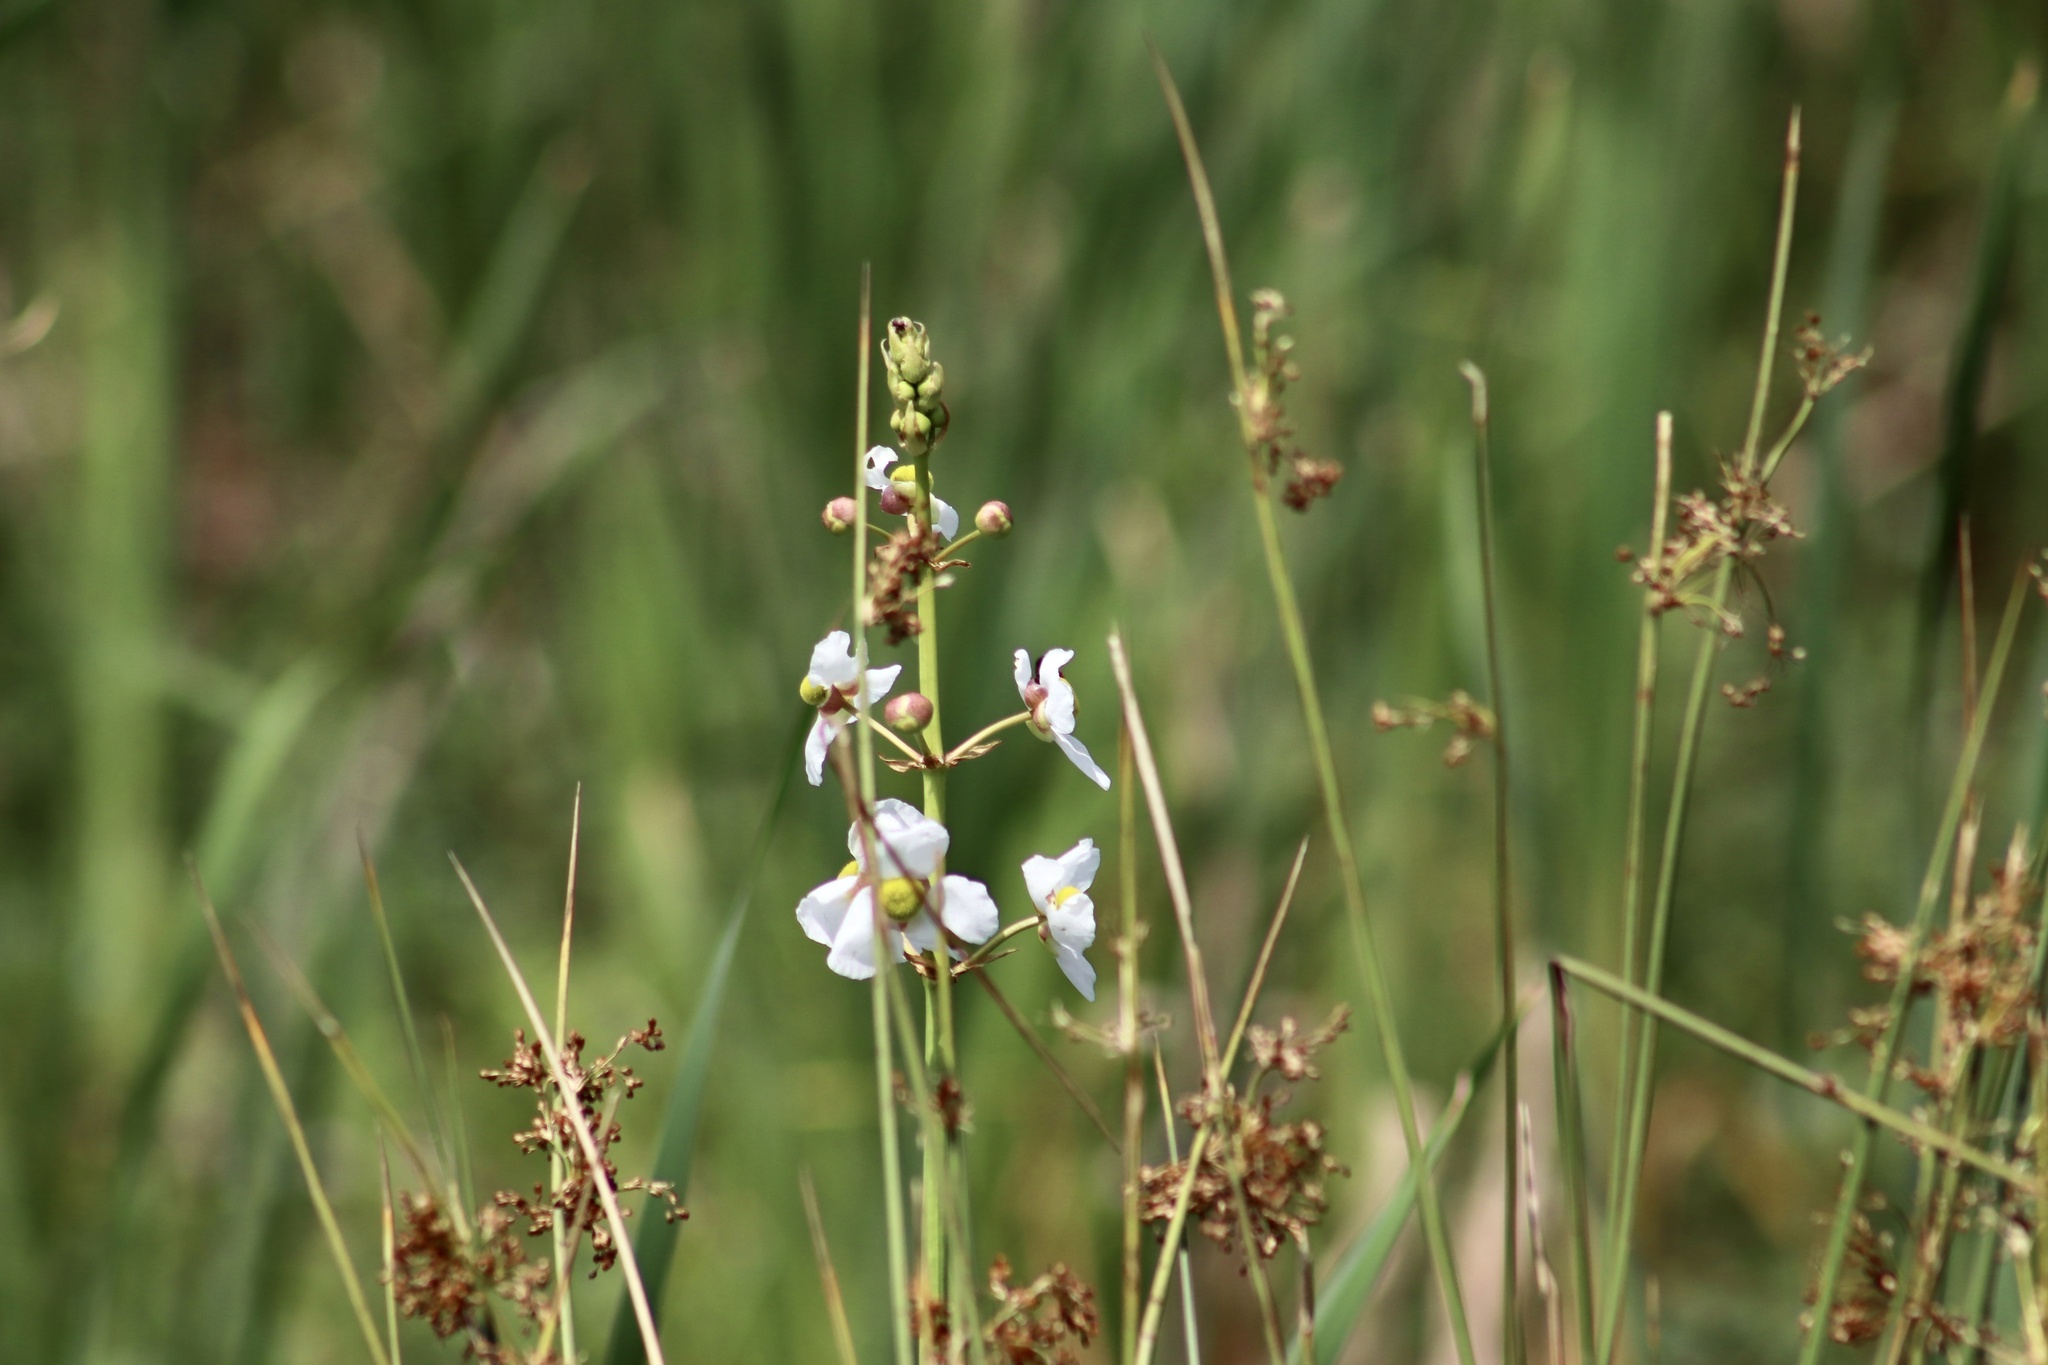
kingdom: Plantae
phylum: Tracheophyta
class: Liliopsida
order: Alismatales
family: Alismataceae
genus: Sagittaria
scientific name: Sagittaria lancifolia
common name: Lance-leaf arrowhead
